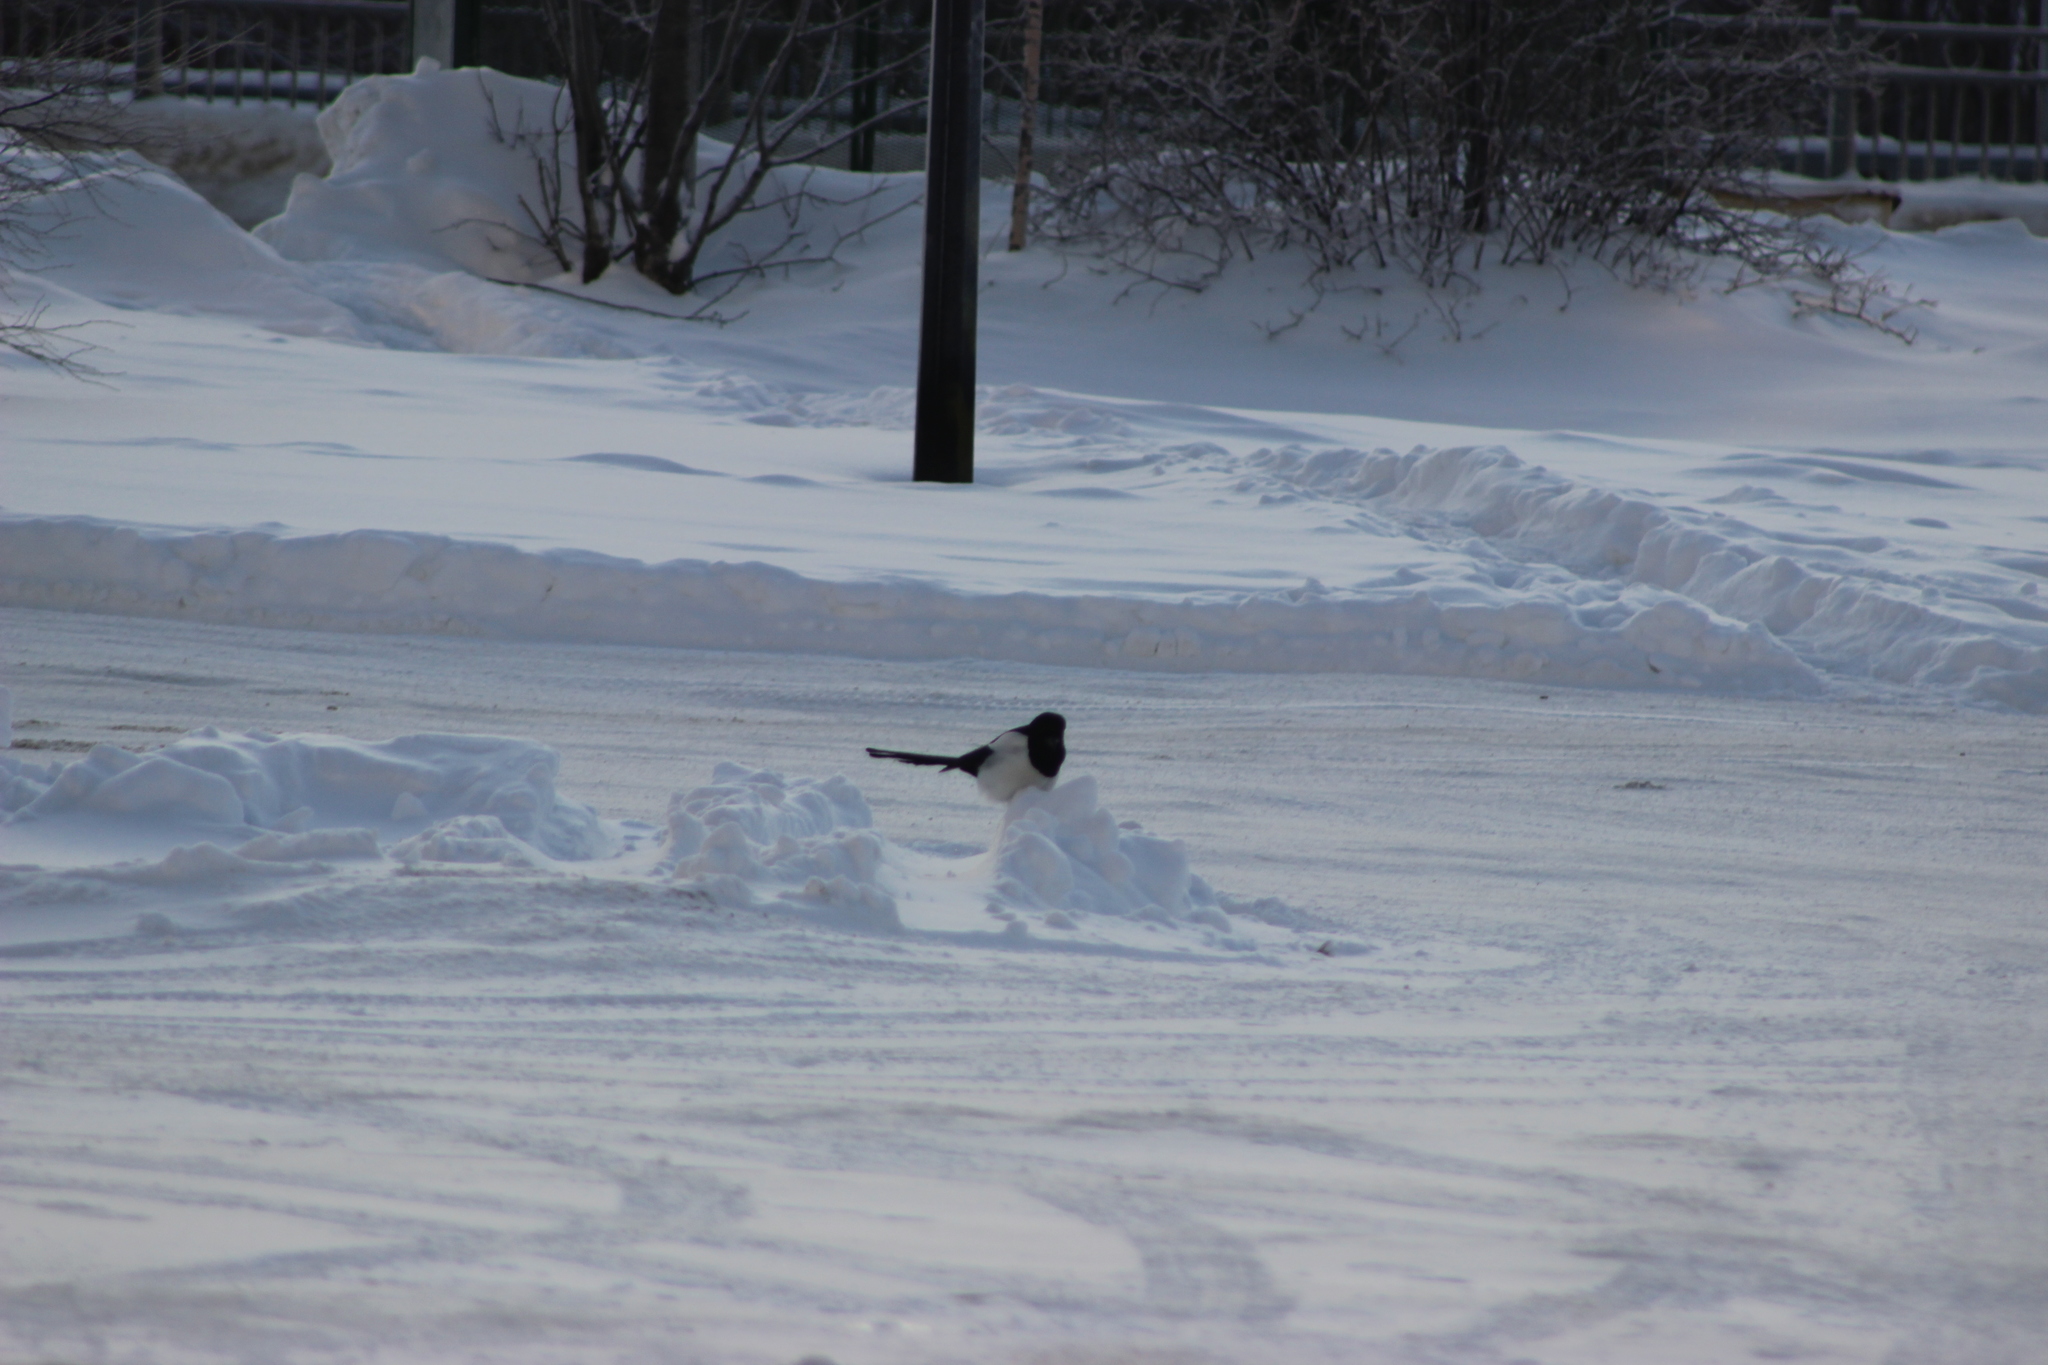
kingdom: Animalia
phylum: Chordata
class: Aves
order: Passeriformes
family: Corvidae
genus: Pica
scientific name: Pica pica
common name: Eurasian magpie
